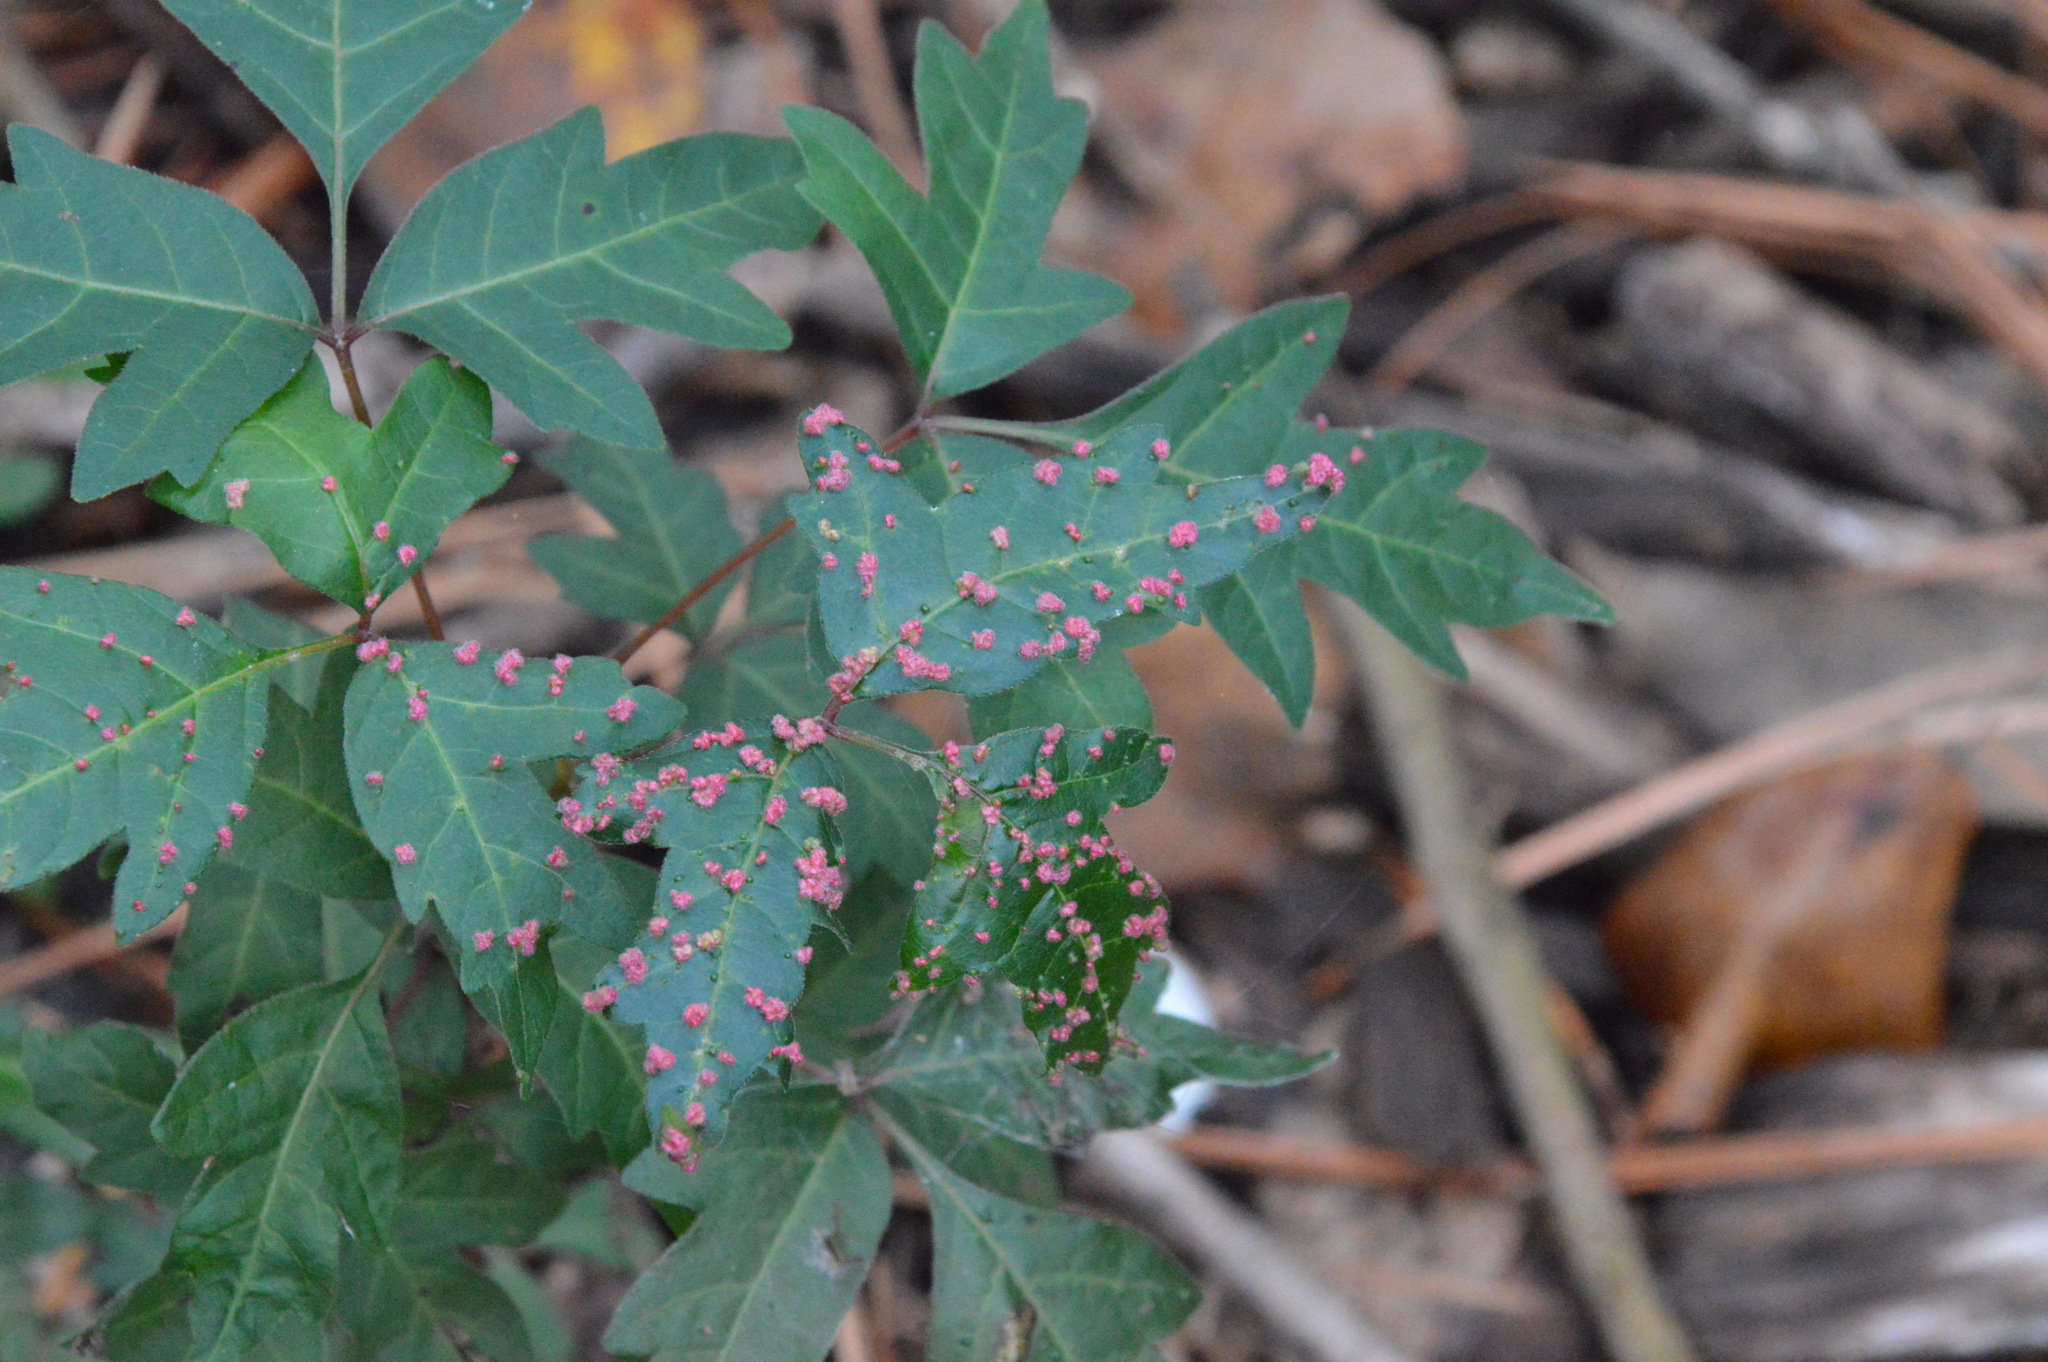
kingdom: Animalia
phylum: Arthropoda
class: Arachnida
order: Trombidiformes
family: Eriophyidae
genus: Aculops
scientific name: Aculops
